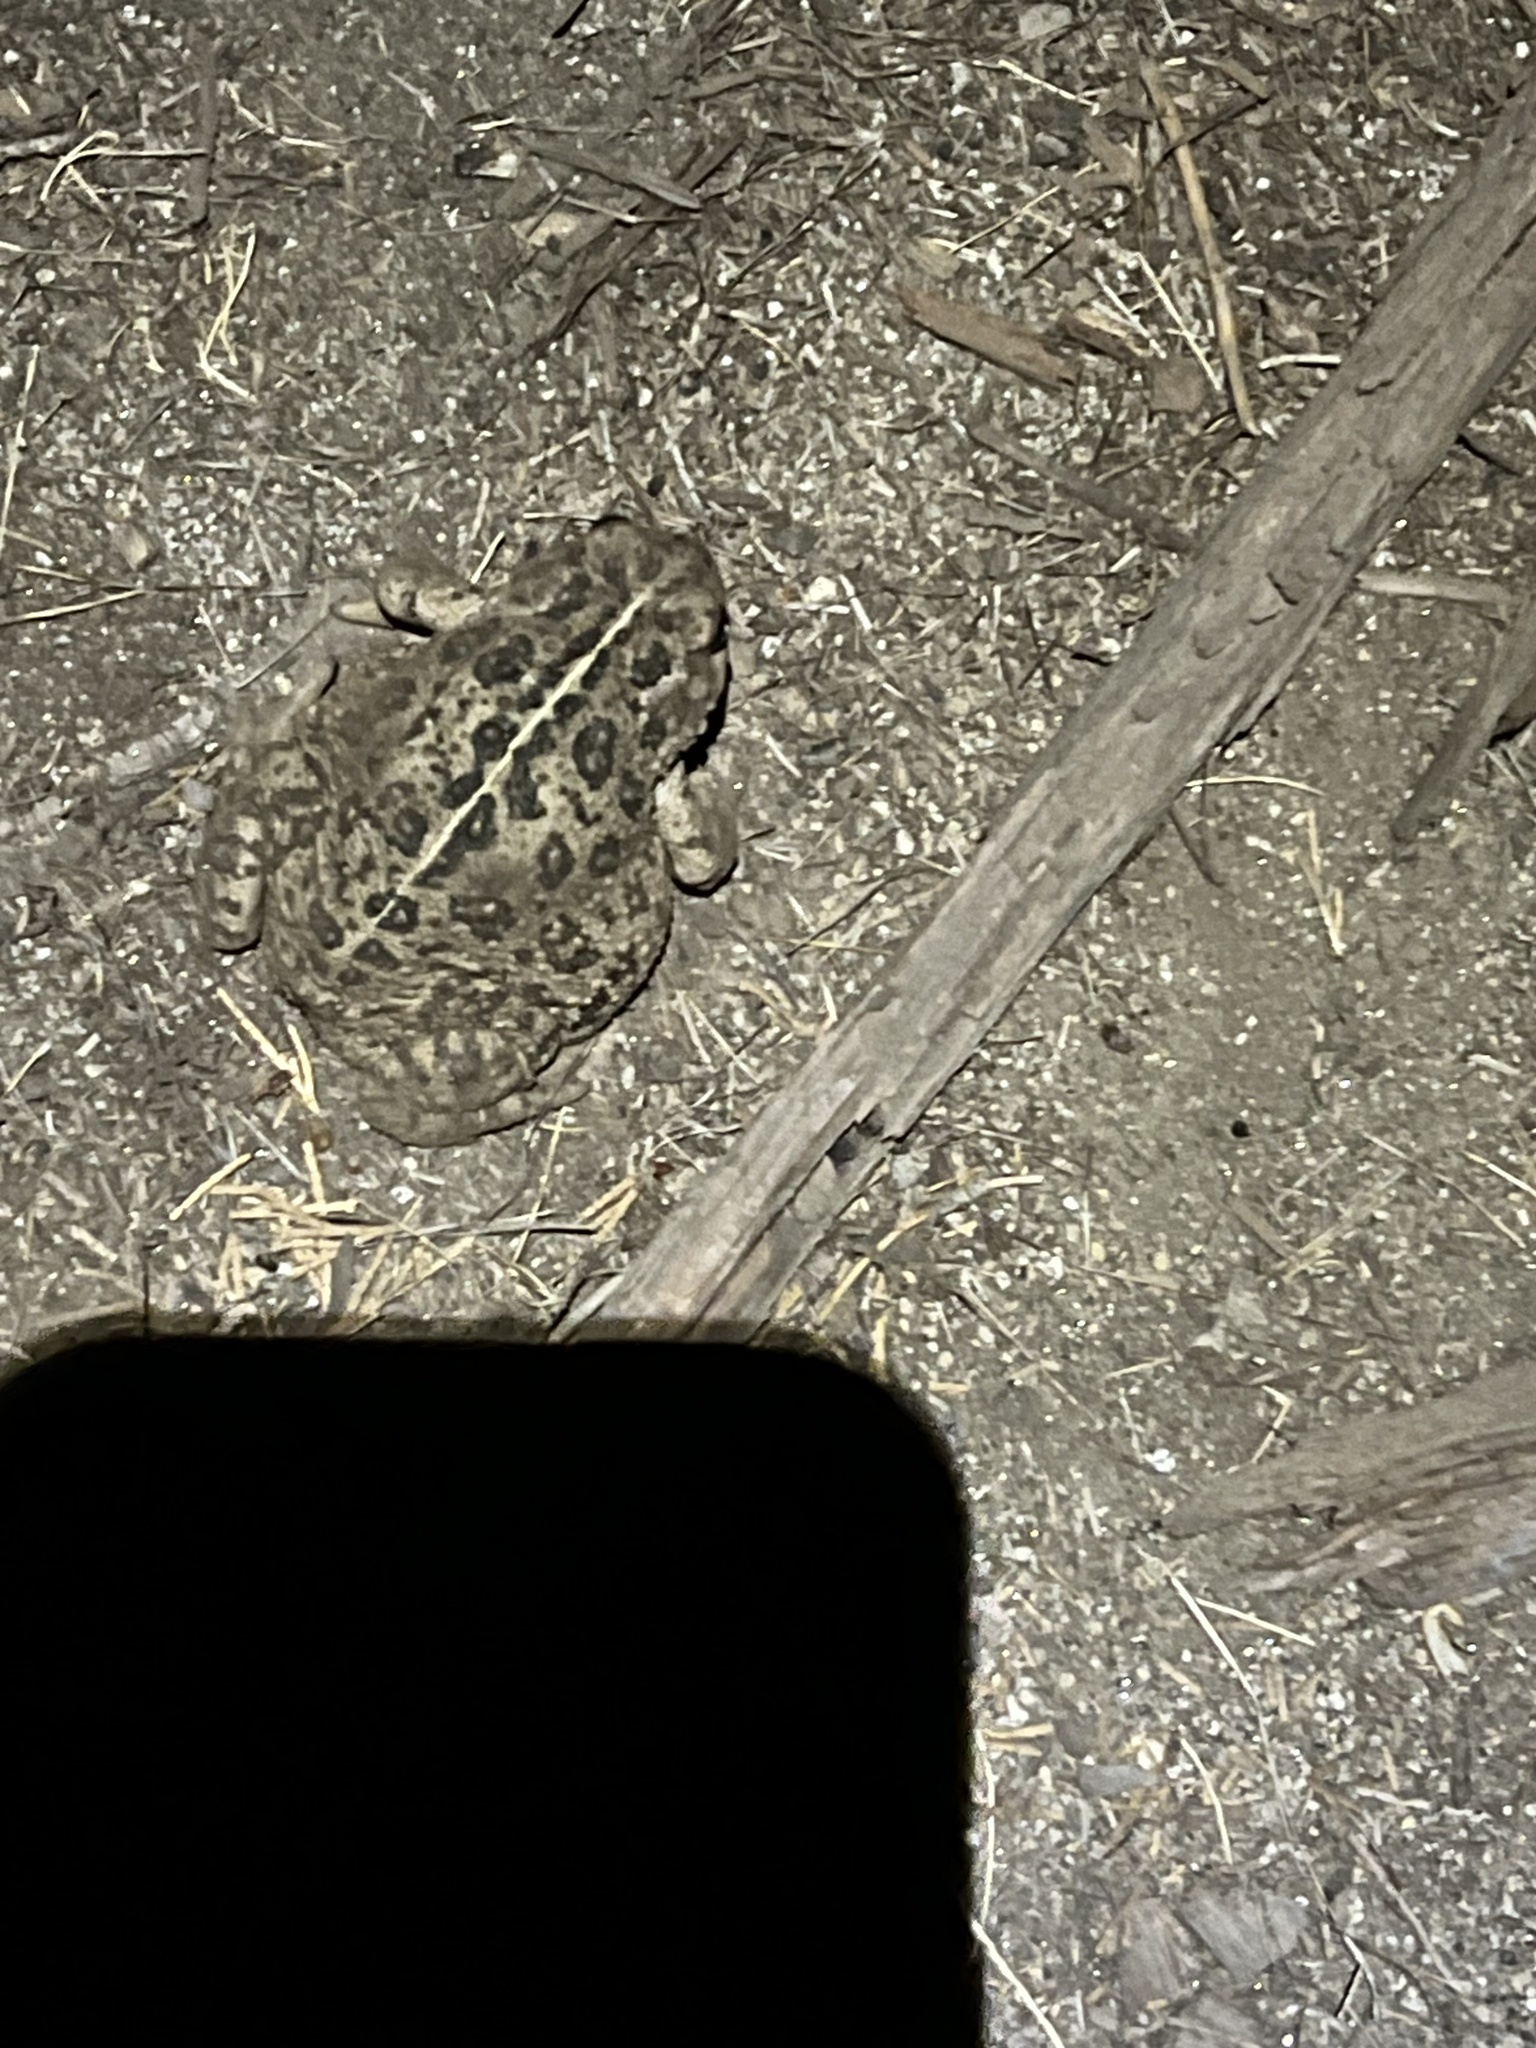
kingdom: Animalia
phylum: Chordata
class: Amphibia
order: Anura
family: Bufonidae
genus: Anaxyrus
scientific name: Anaxyrus boreas
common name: Western toad
